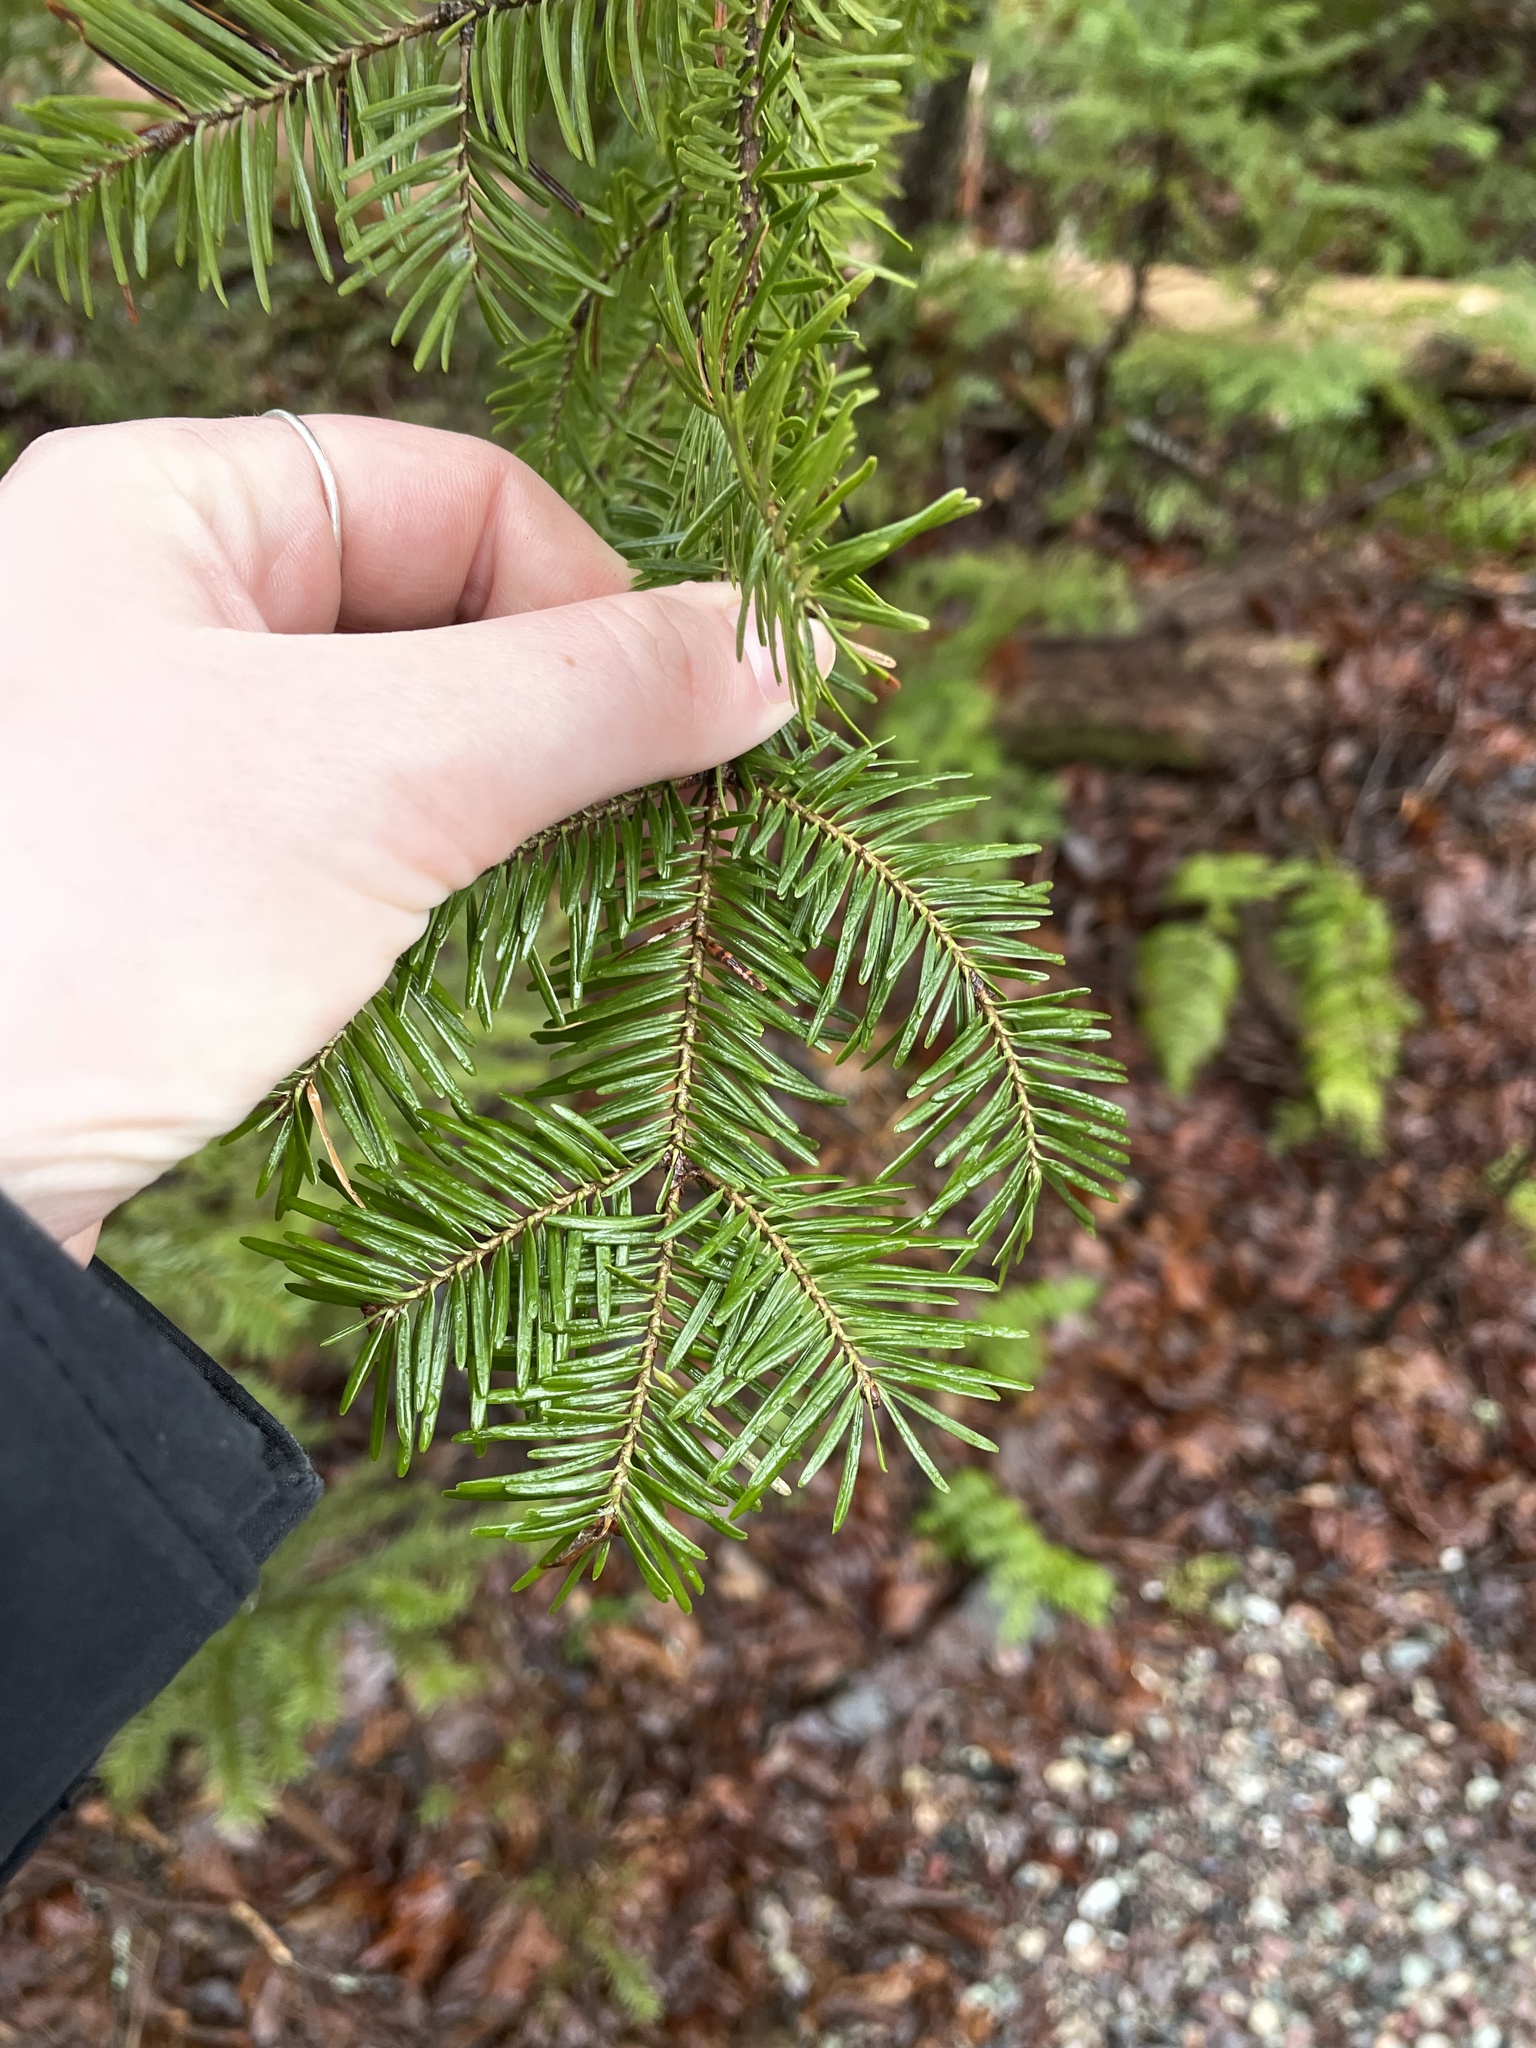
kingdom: Plantae
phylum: Tracheophyta
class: Pinopsida
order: Pinales
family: Pinaceae
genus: Abies
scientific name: Abies balsamea
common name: Balsam fir
